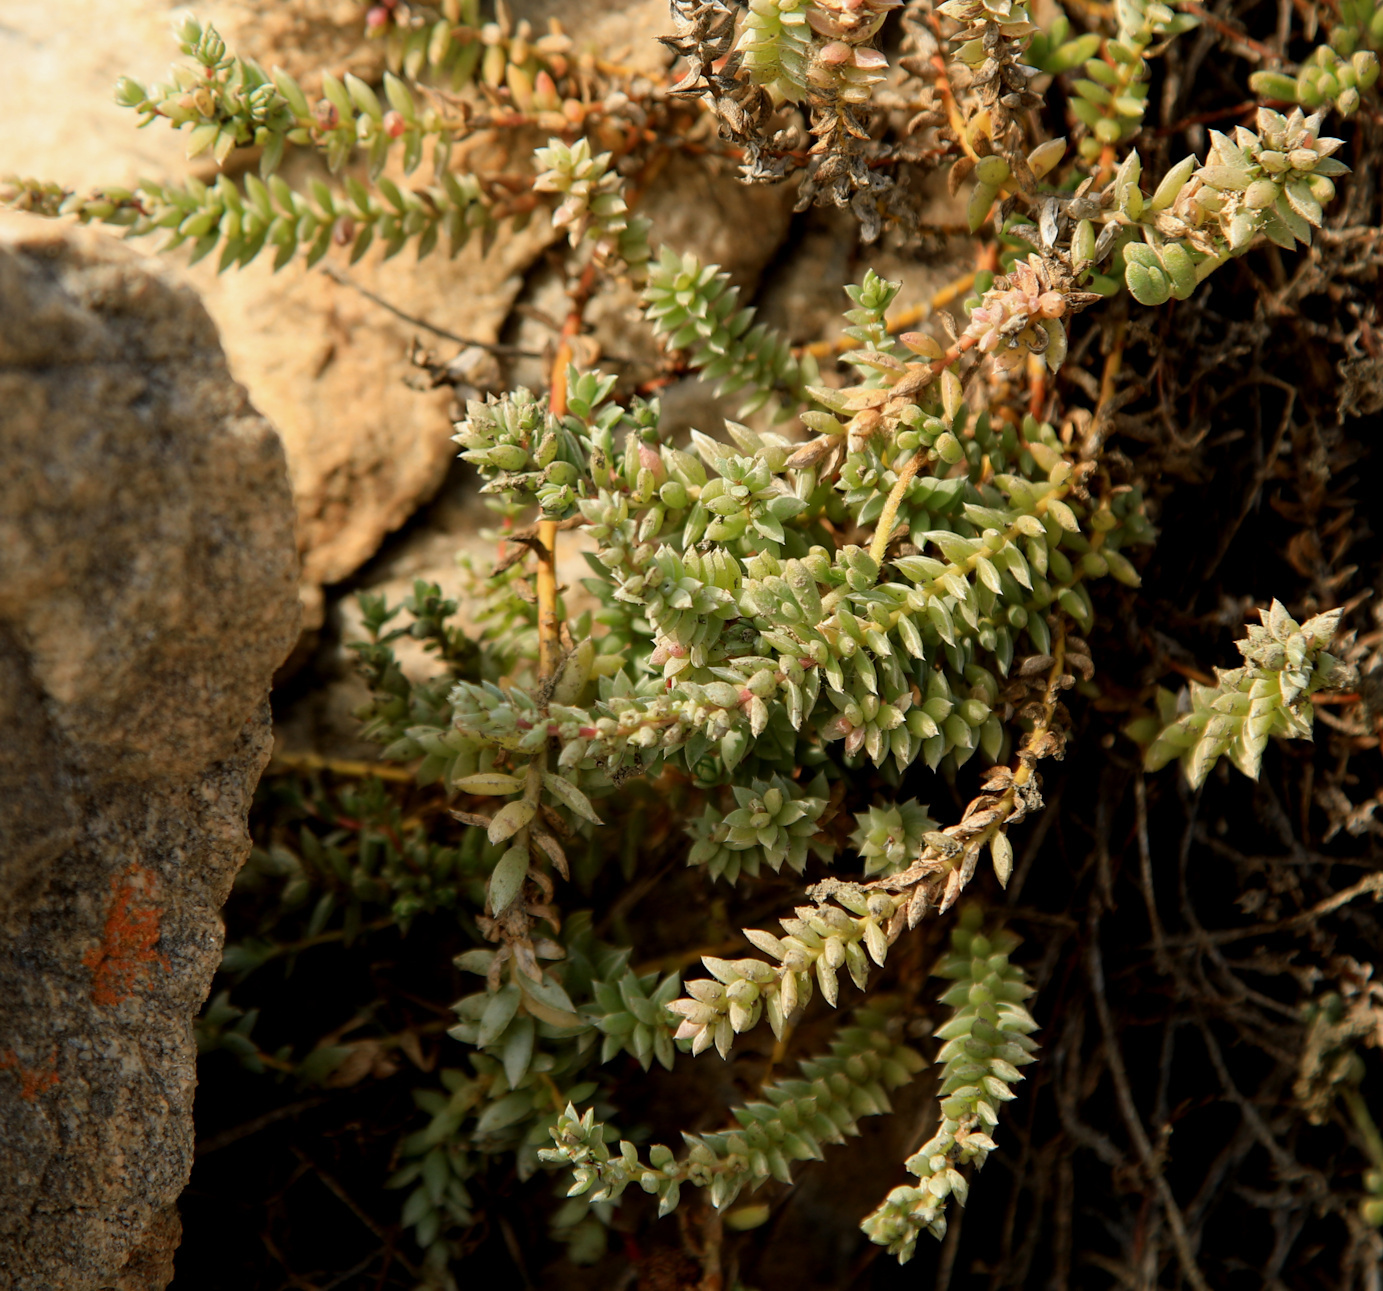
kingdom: Plantae
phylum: Tracheophyta
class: Magnoliopsida
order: Caryophyllales
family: Amaranthaceae
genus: Chenolea
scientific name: Chenolea diffusa
